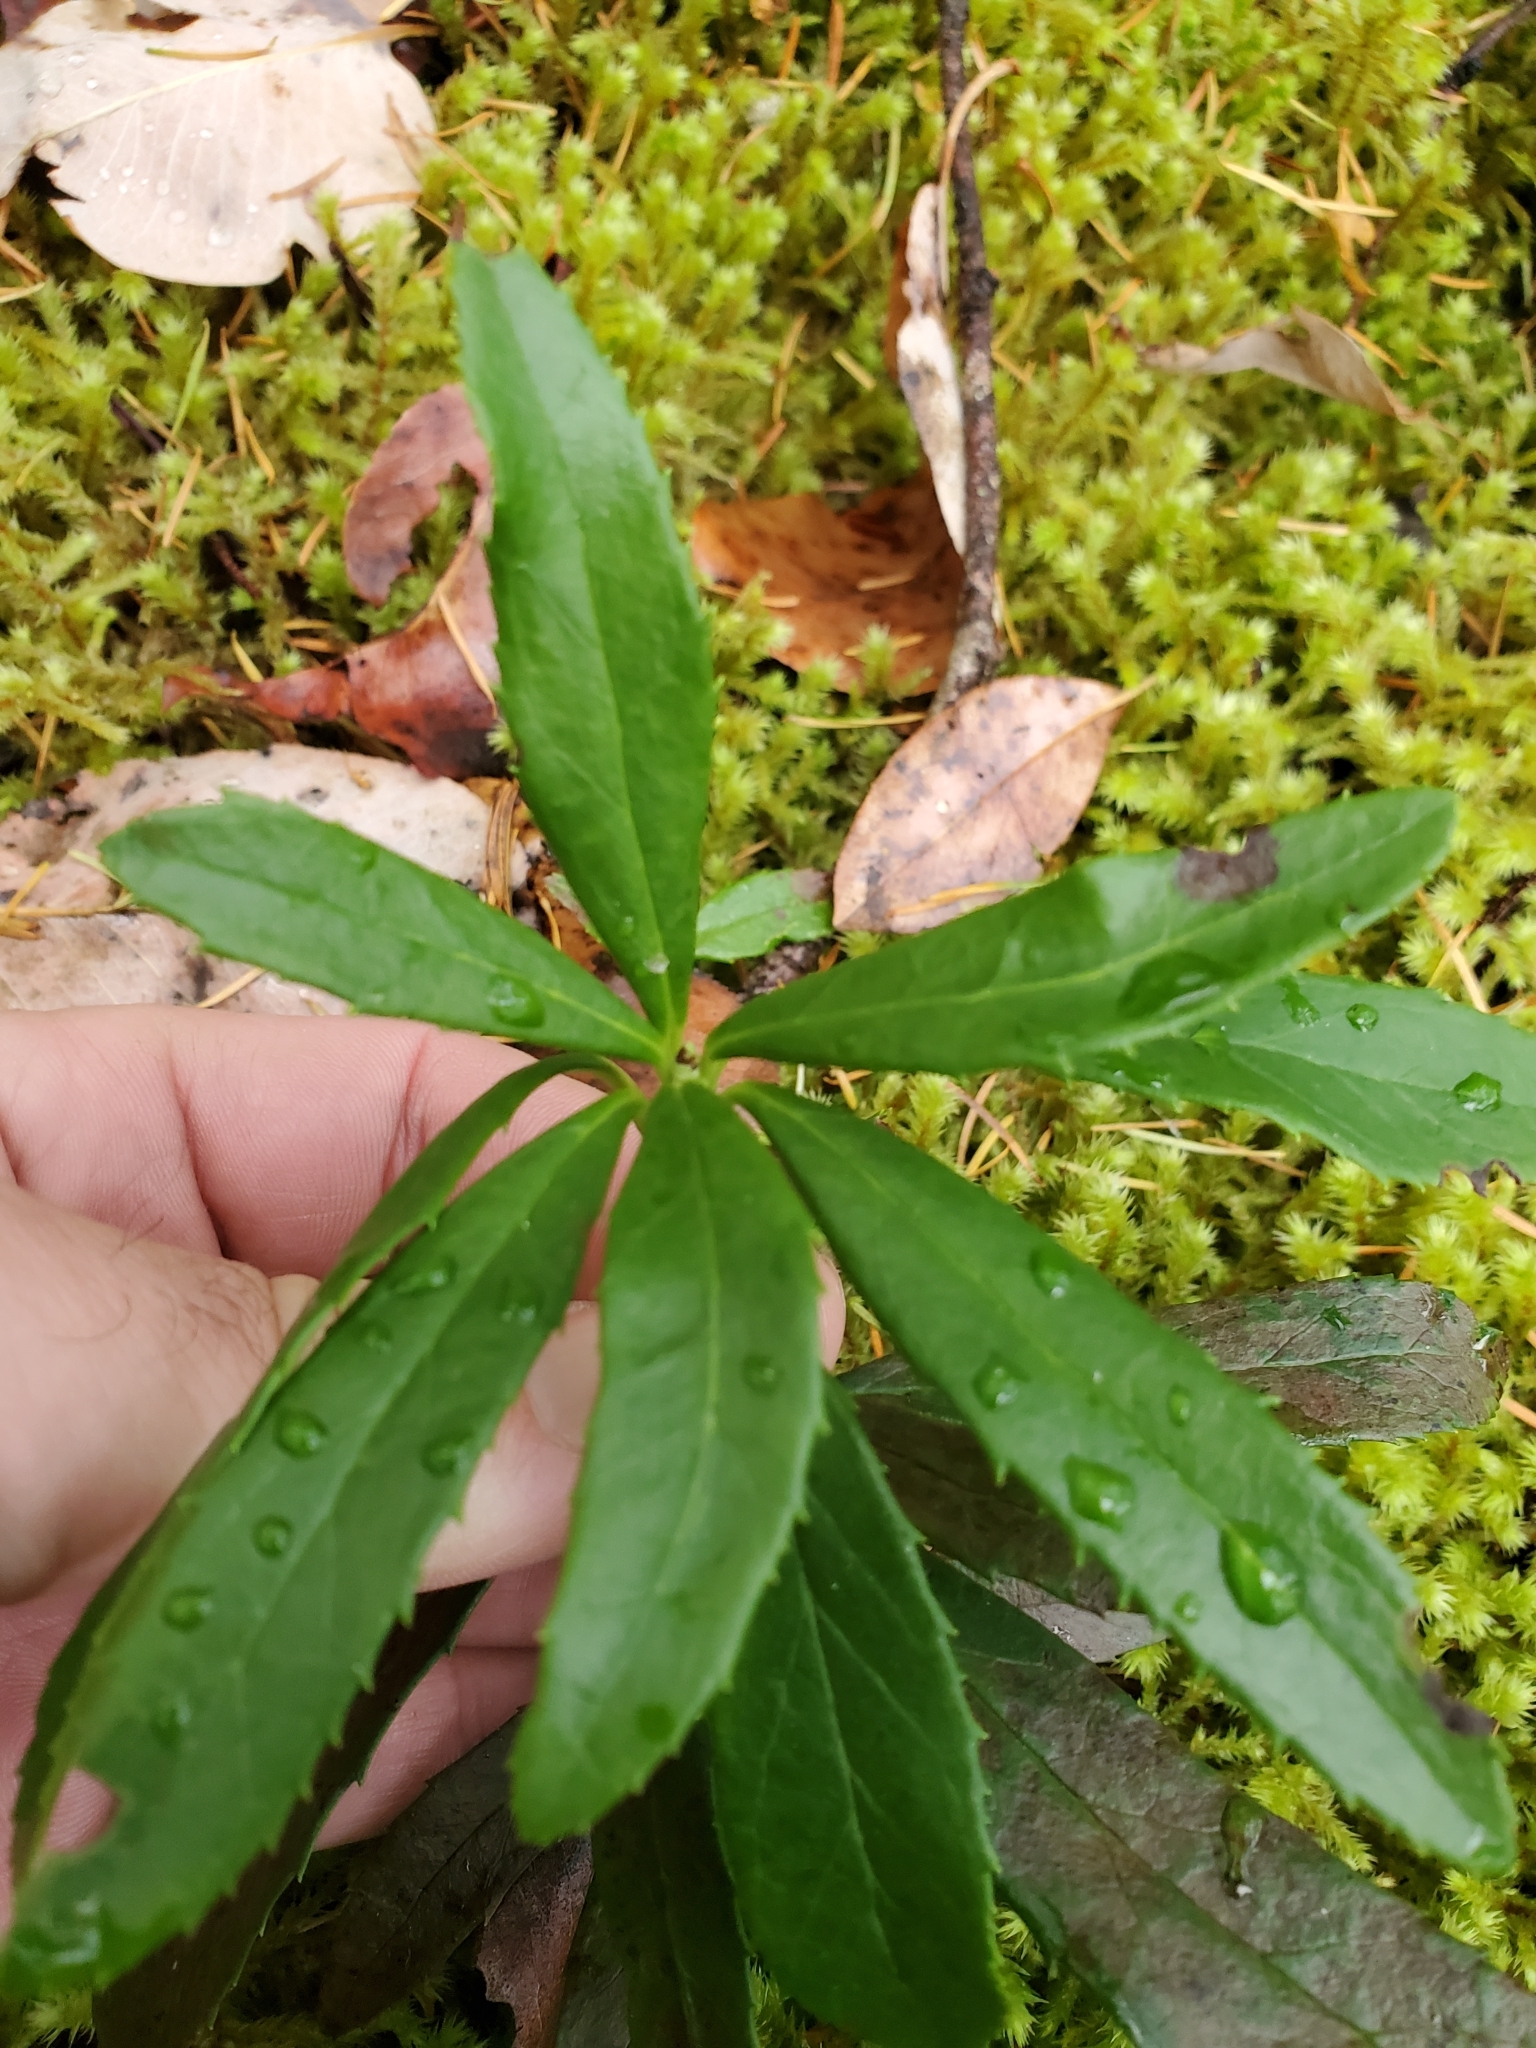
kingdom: Plantae
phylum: Tracheophyta
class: Magnoliopsida
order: Ericales
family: Ericaceae
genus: Chimaphila
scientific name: Chimaphila umbellata
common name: Pipsissewa
